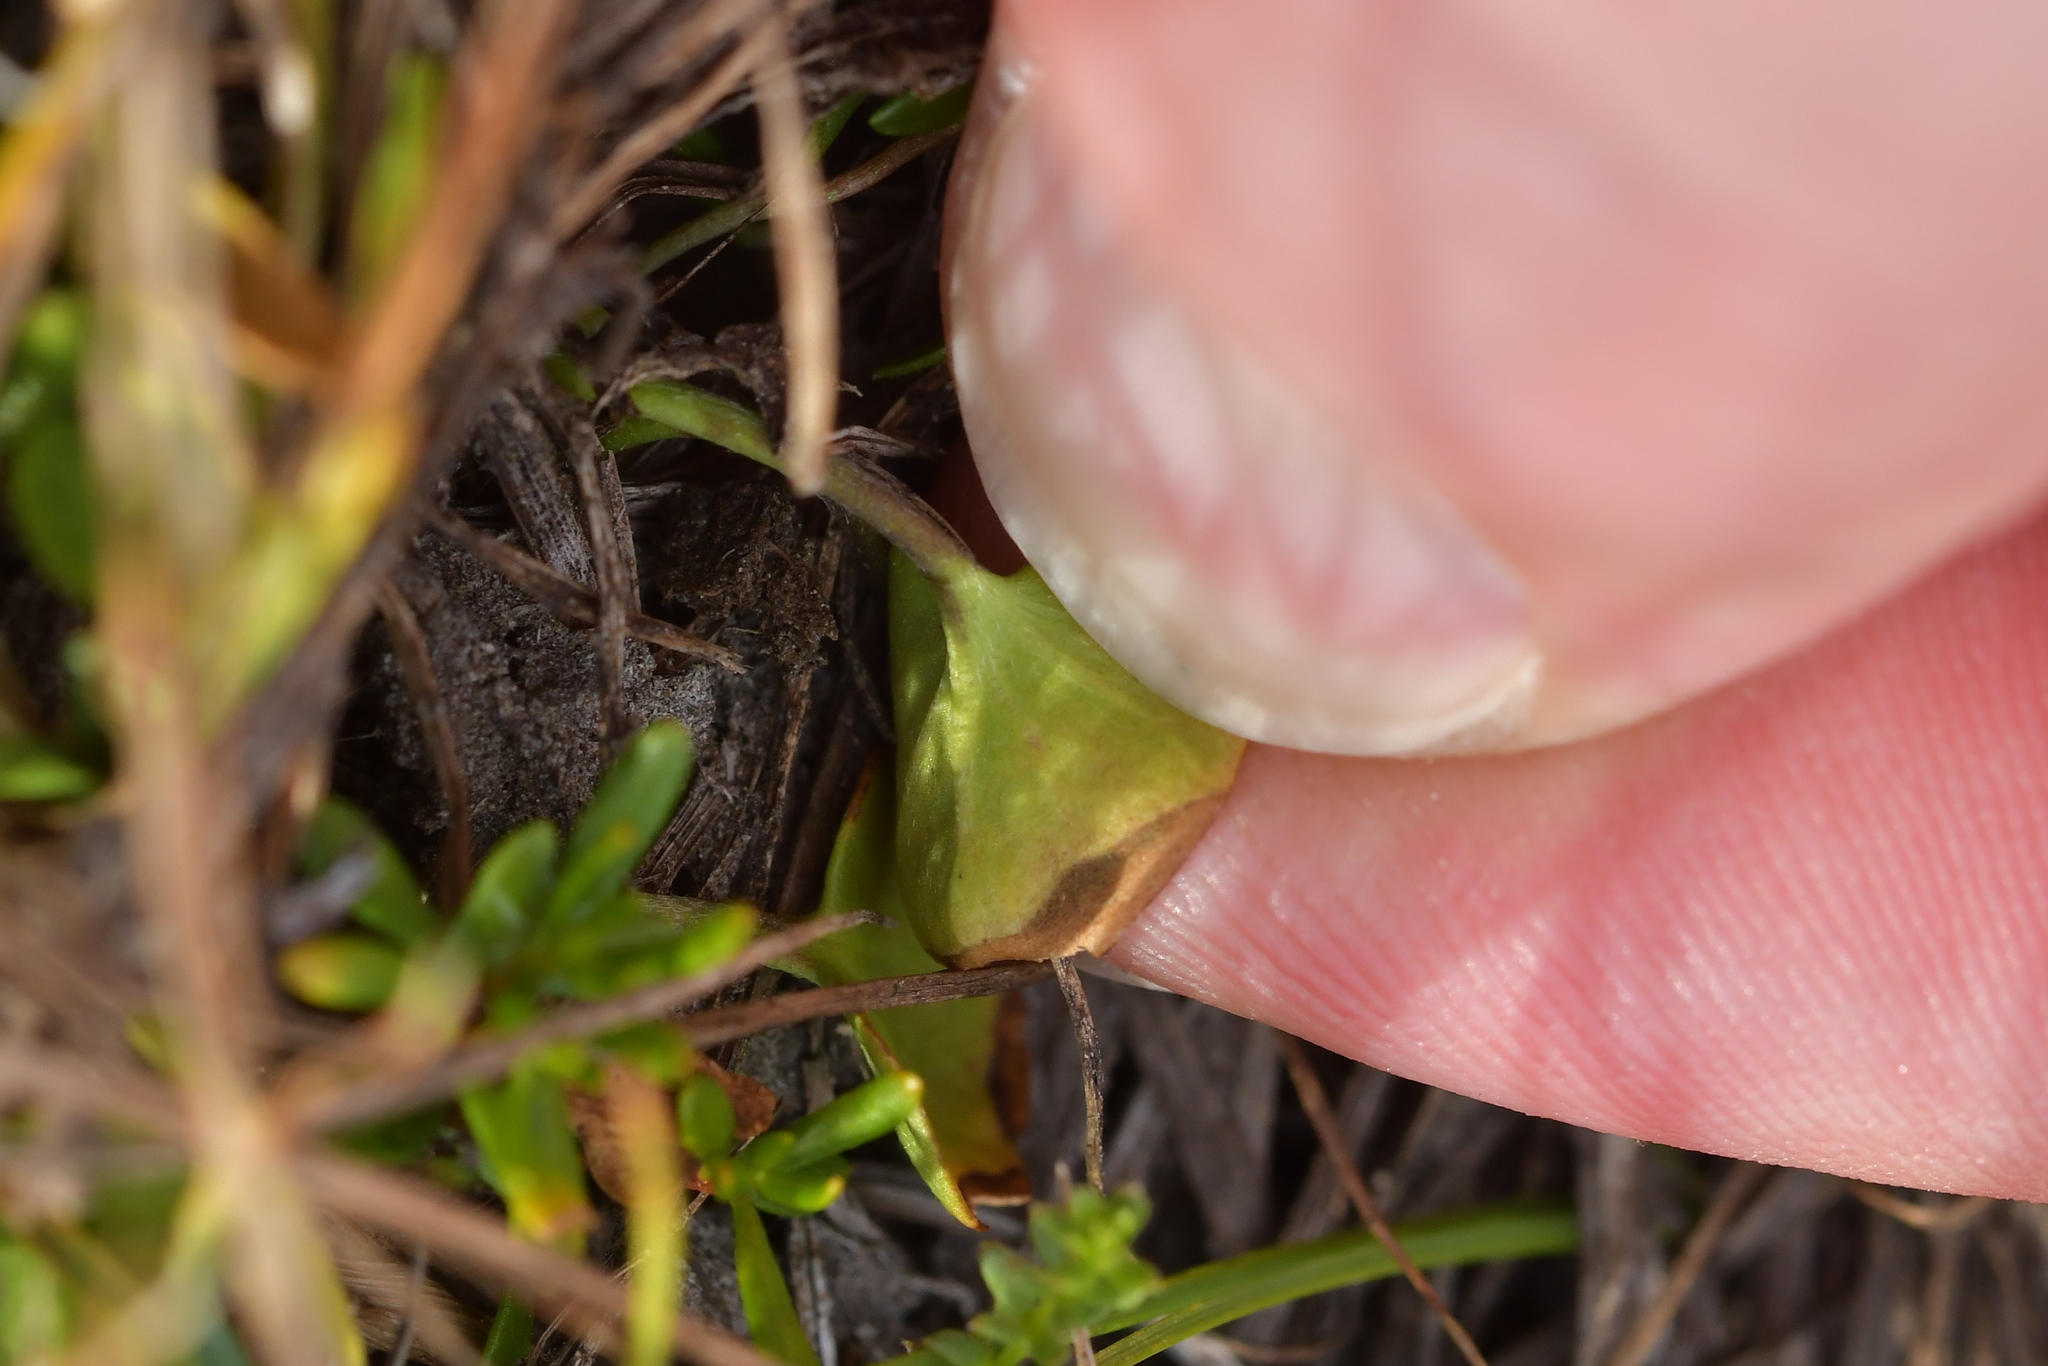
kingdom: Plantae
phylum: Tracheophyta
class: Magnoliopsida
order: Solanales
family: Convolvulaceae
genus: Dichondra
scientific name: Dichondra brevifolia
